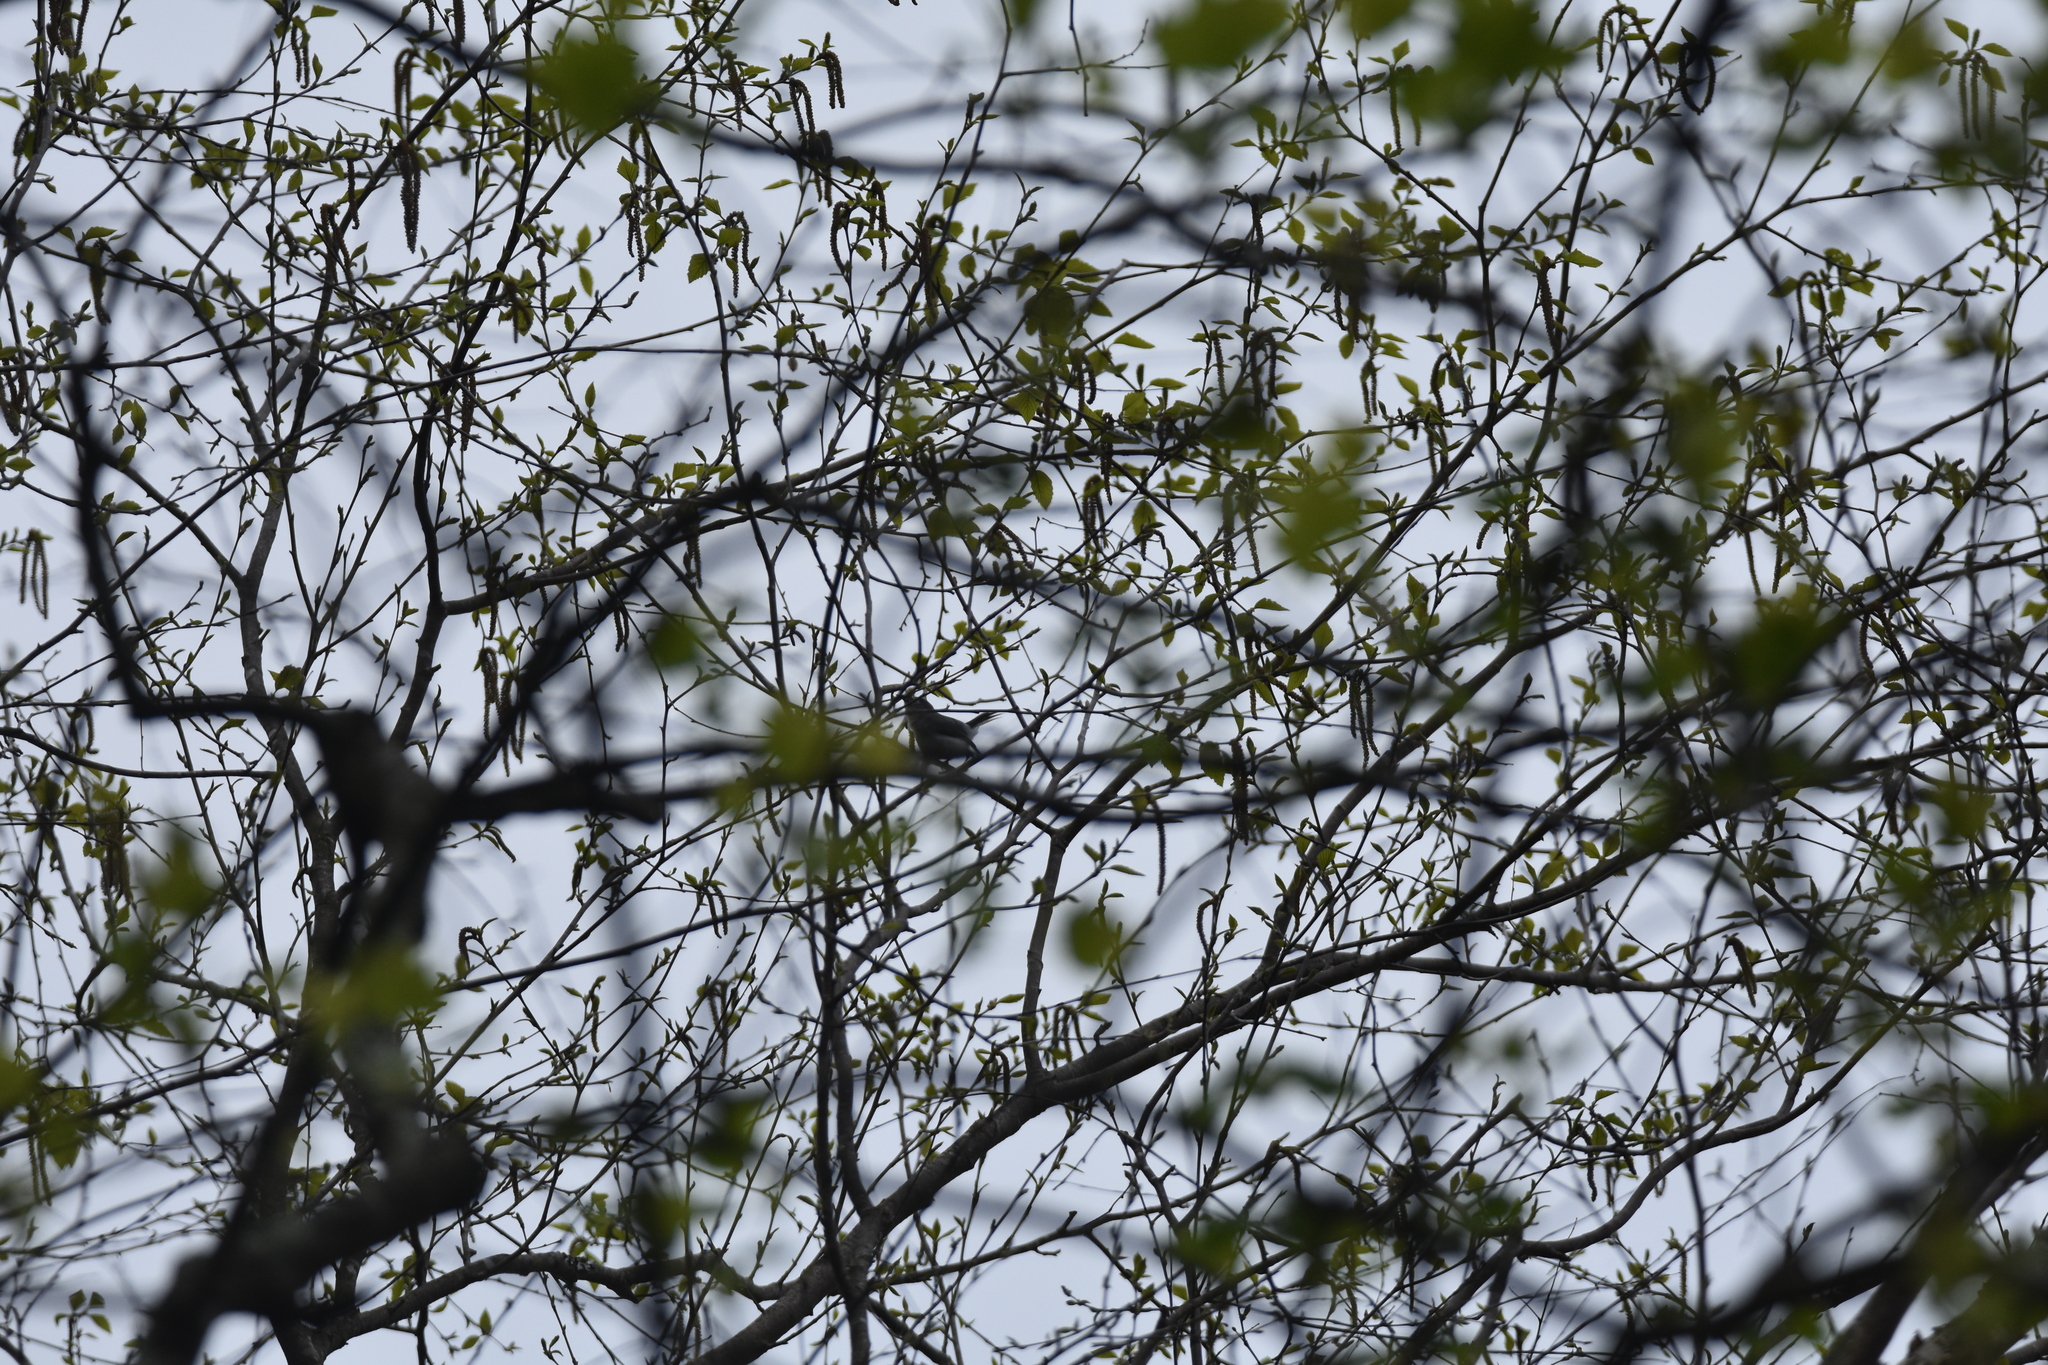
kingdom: Animalia
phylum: Chordata
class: Aves
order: Passeriformes
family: Polioptilidae
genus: Polioptila
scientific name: Polioptila caerulea
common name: Blue-gray gnatcatcher
